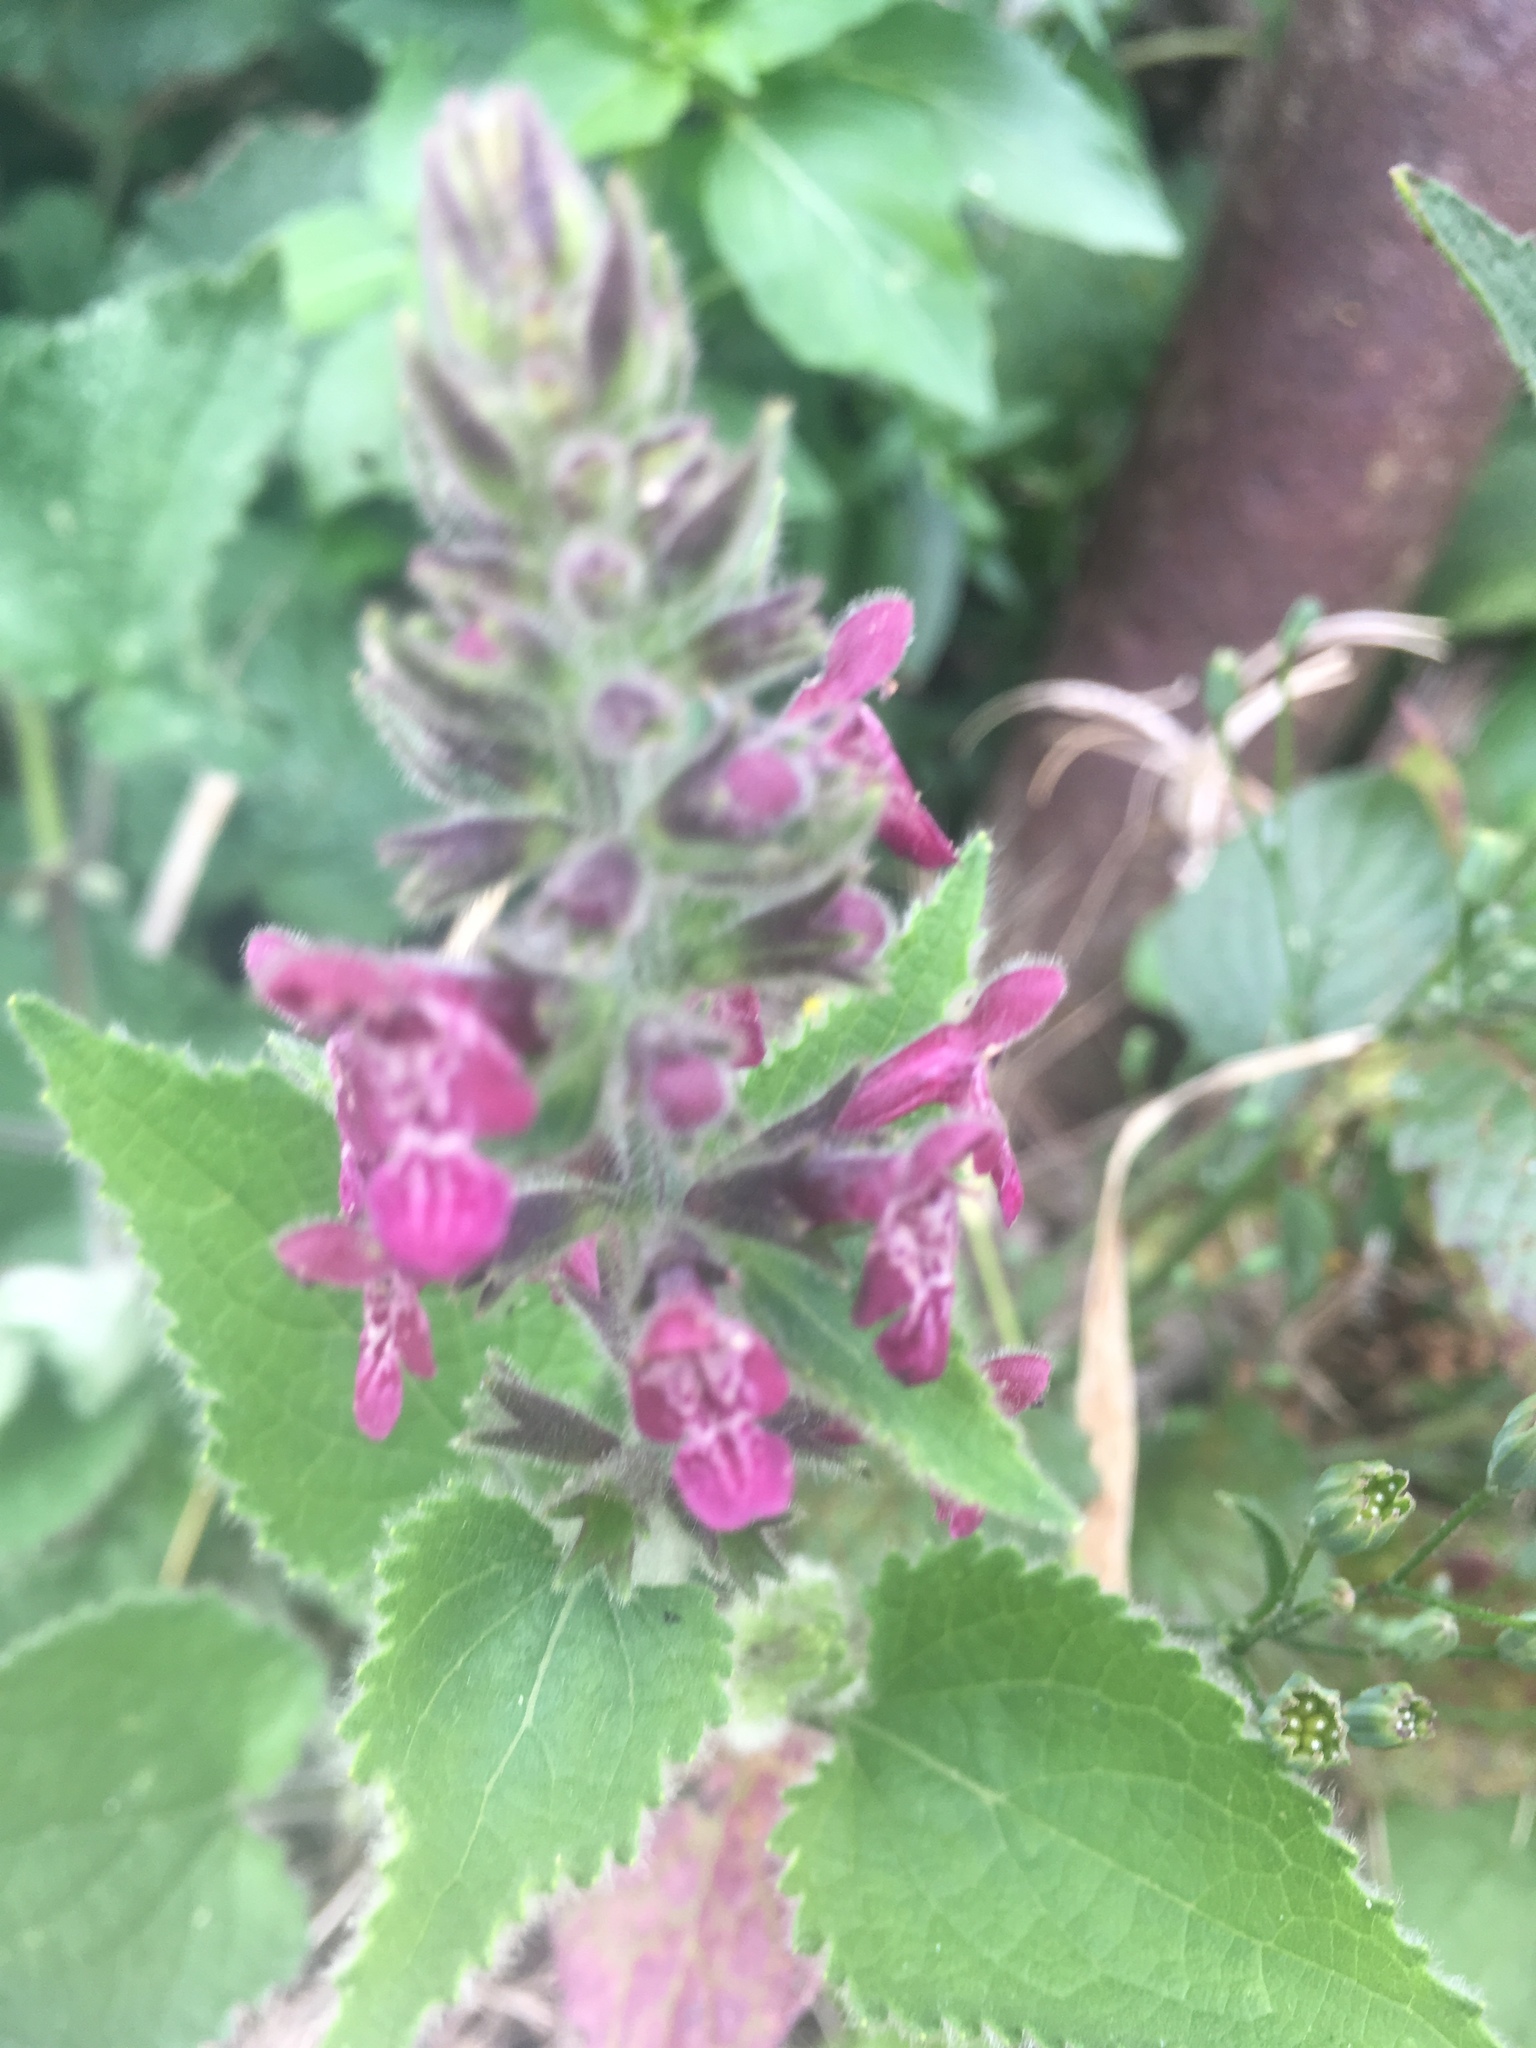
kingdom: Plantae
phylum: Tracheophyta
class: Magnoliopsida
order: Lamiales
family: Lamiaceae
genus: Stachys
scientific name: Stachys sylvatica
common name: Hedge woundwort
